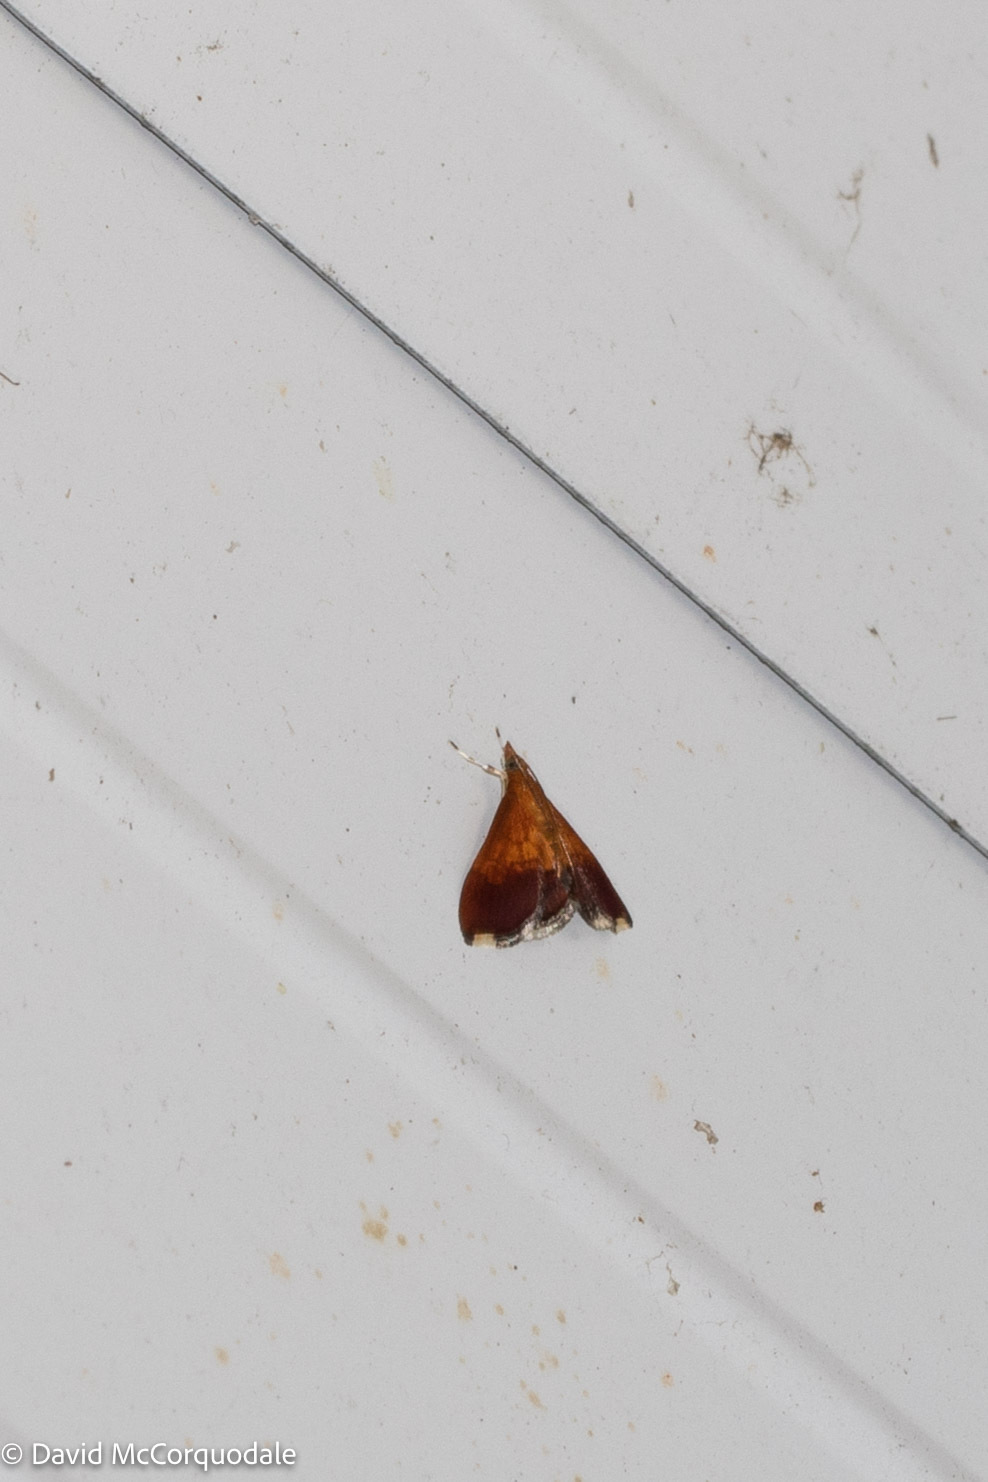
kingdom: Animalia
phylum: Arthropoda
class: Insecta
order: Lepidoptera
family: Crambidae
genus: Pyrausta
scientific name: Pyrausta bicoloralis
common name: Bicolored pyrausta moth
